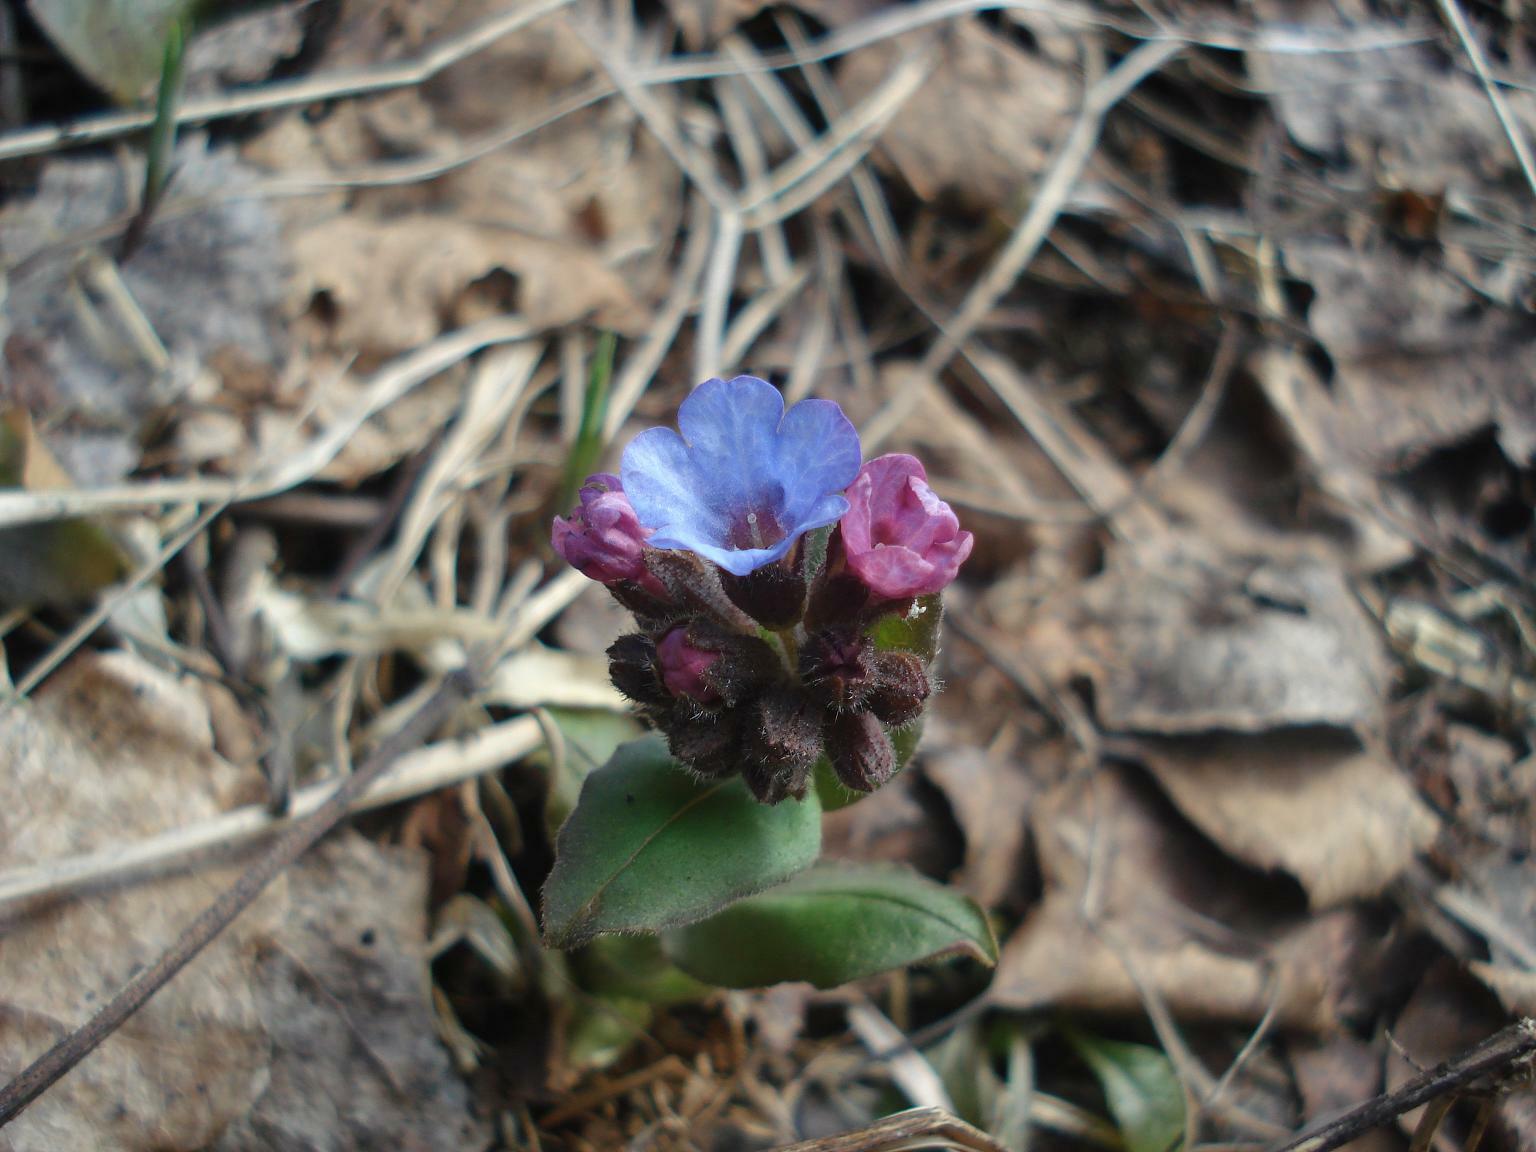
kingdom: Plantae
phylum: Tracheophyta
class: Magnoliopsida
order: Boraginales
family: Boraginaceae
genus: Pulmonaria
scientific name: Pulmonaria obscura
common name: Suffolk lungwort
